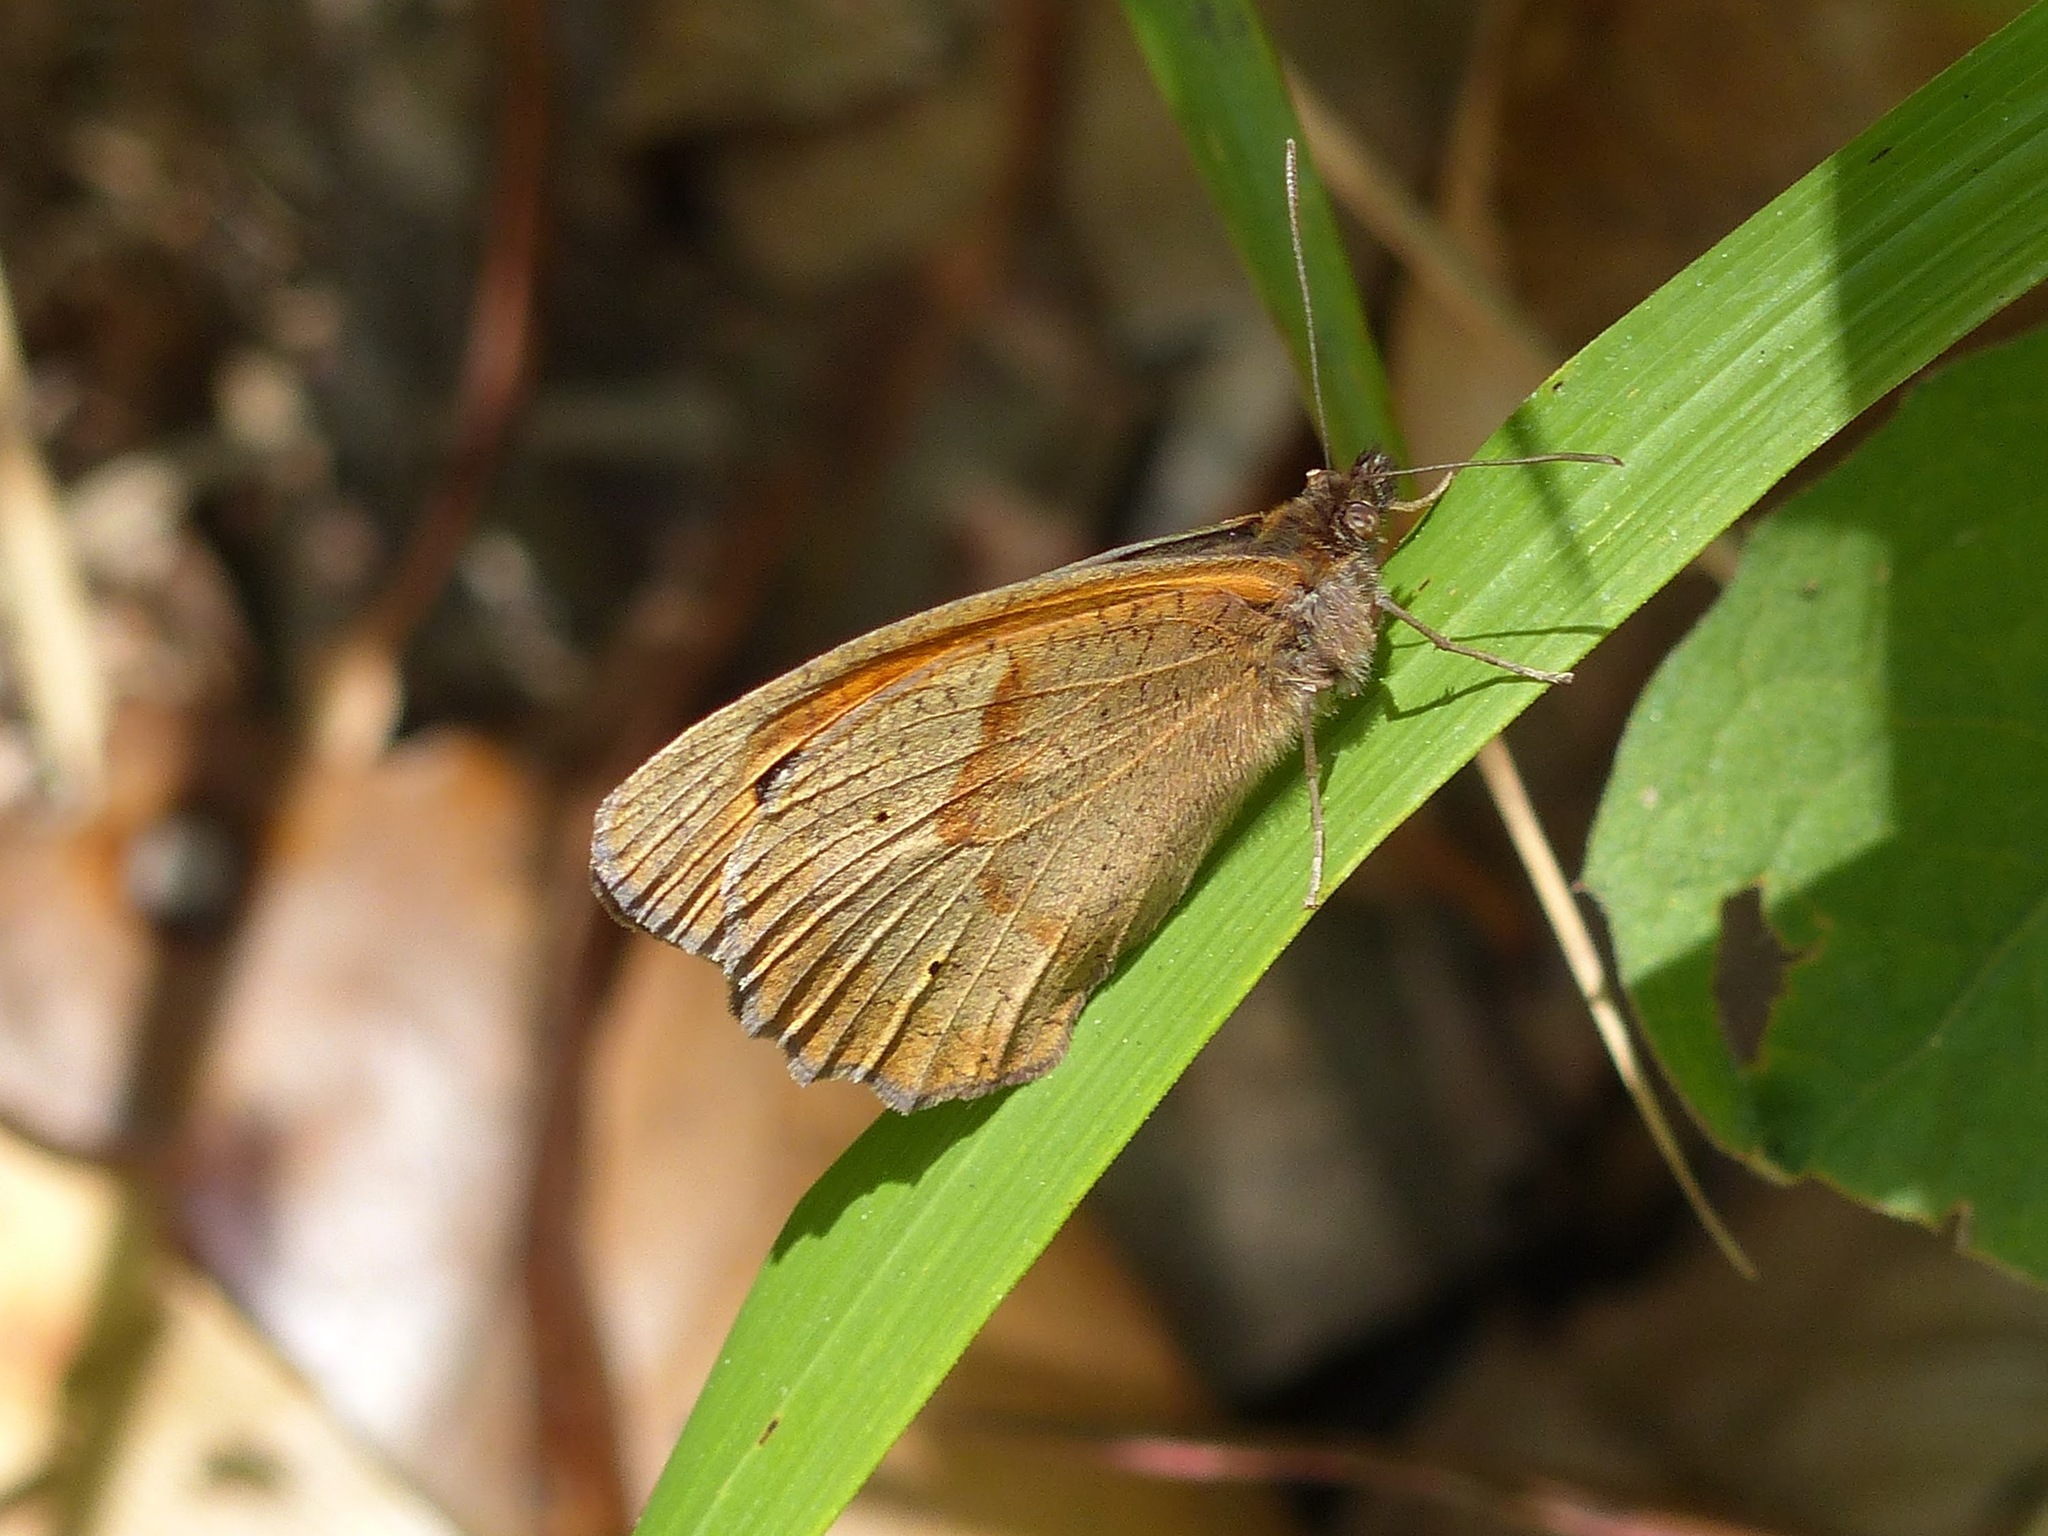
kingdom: Animalia
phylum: Arthropoda
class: Insecta
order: Lepidoptera
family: Nymphalidae
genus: Maniola
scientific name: Maniola jurtina
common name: Meadow brown
